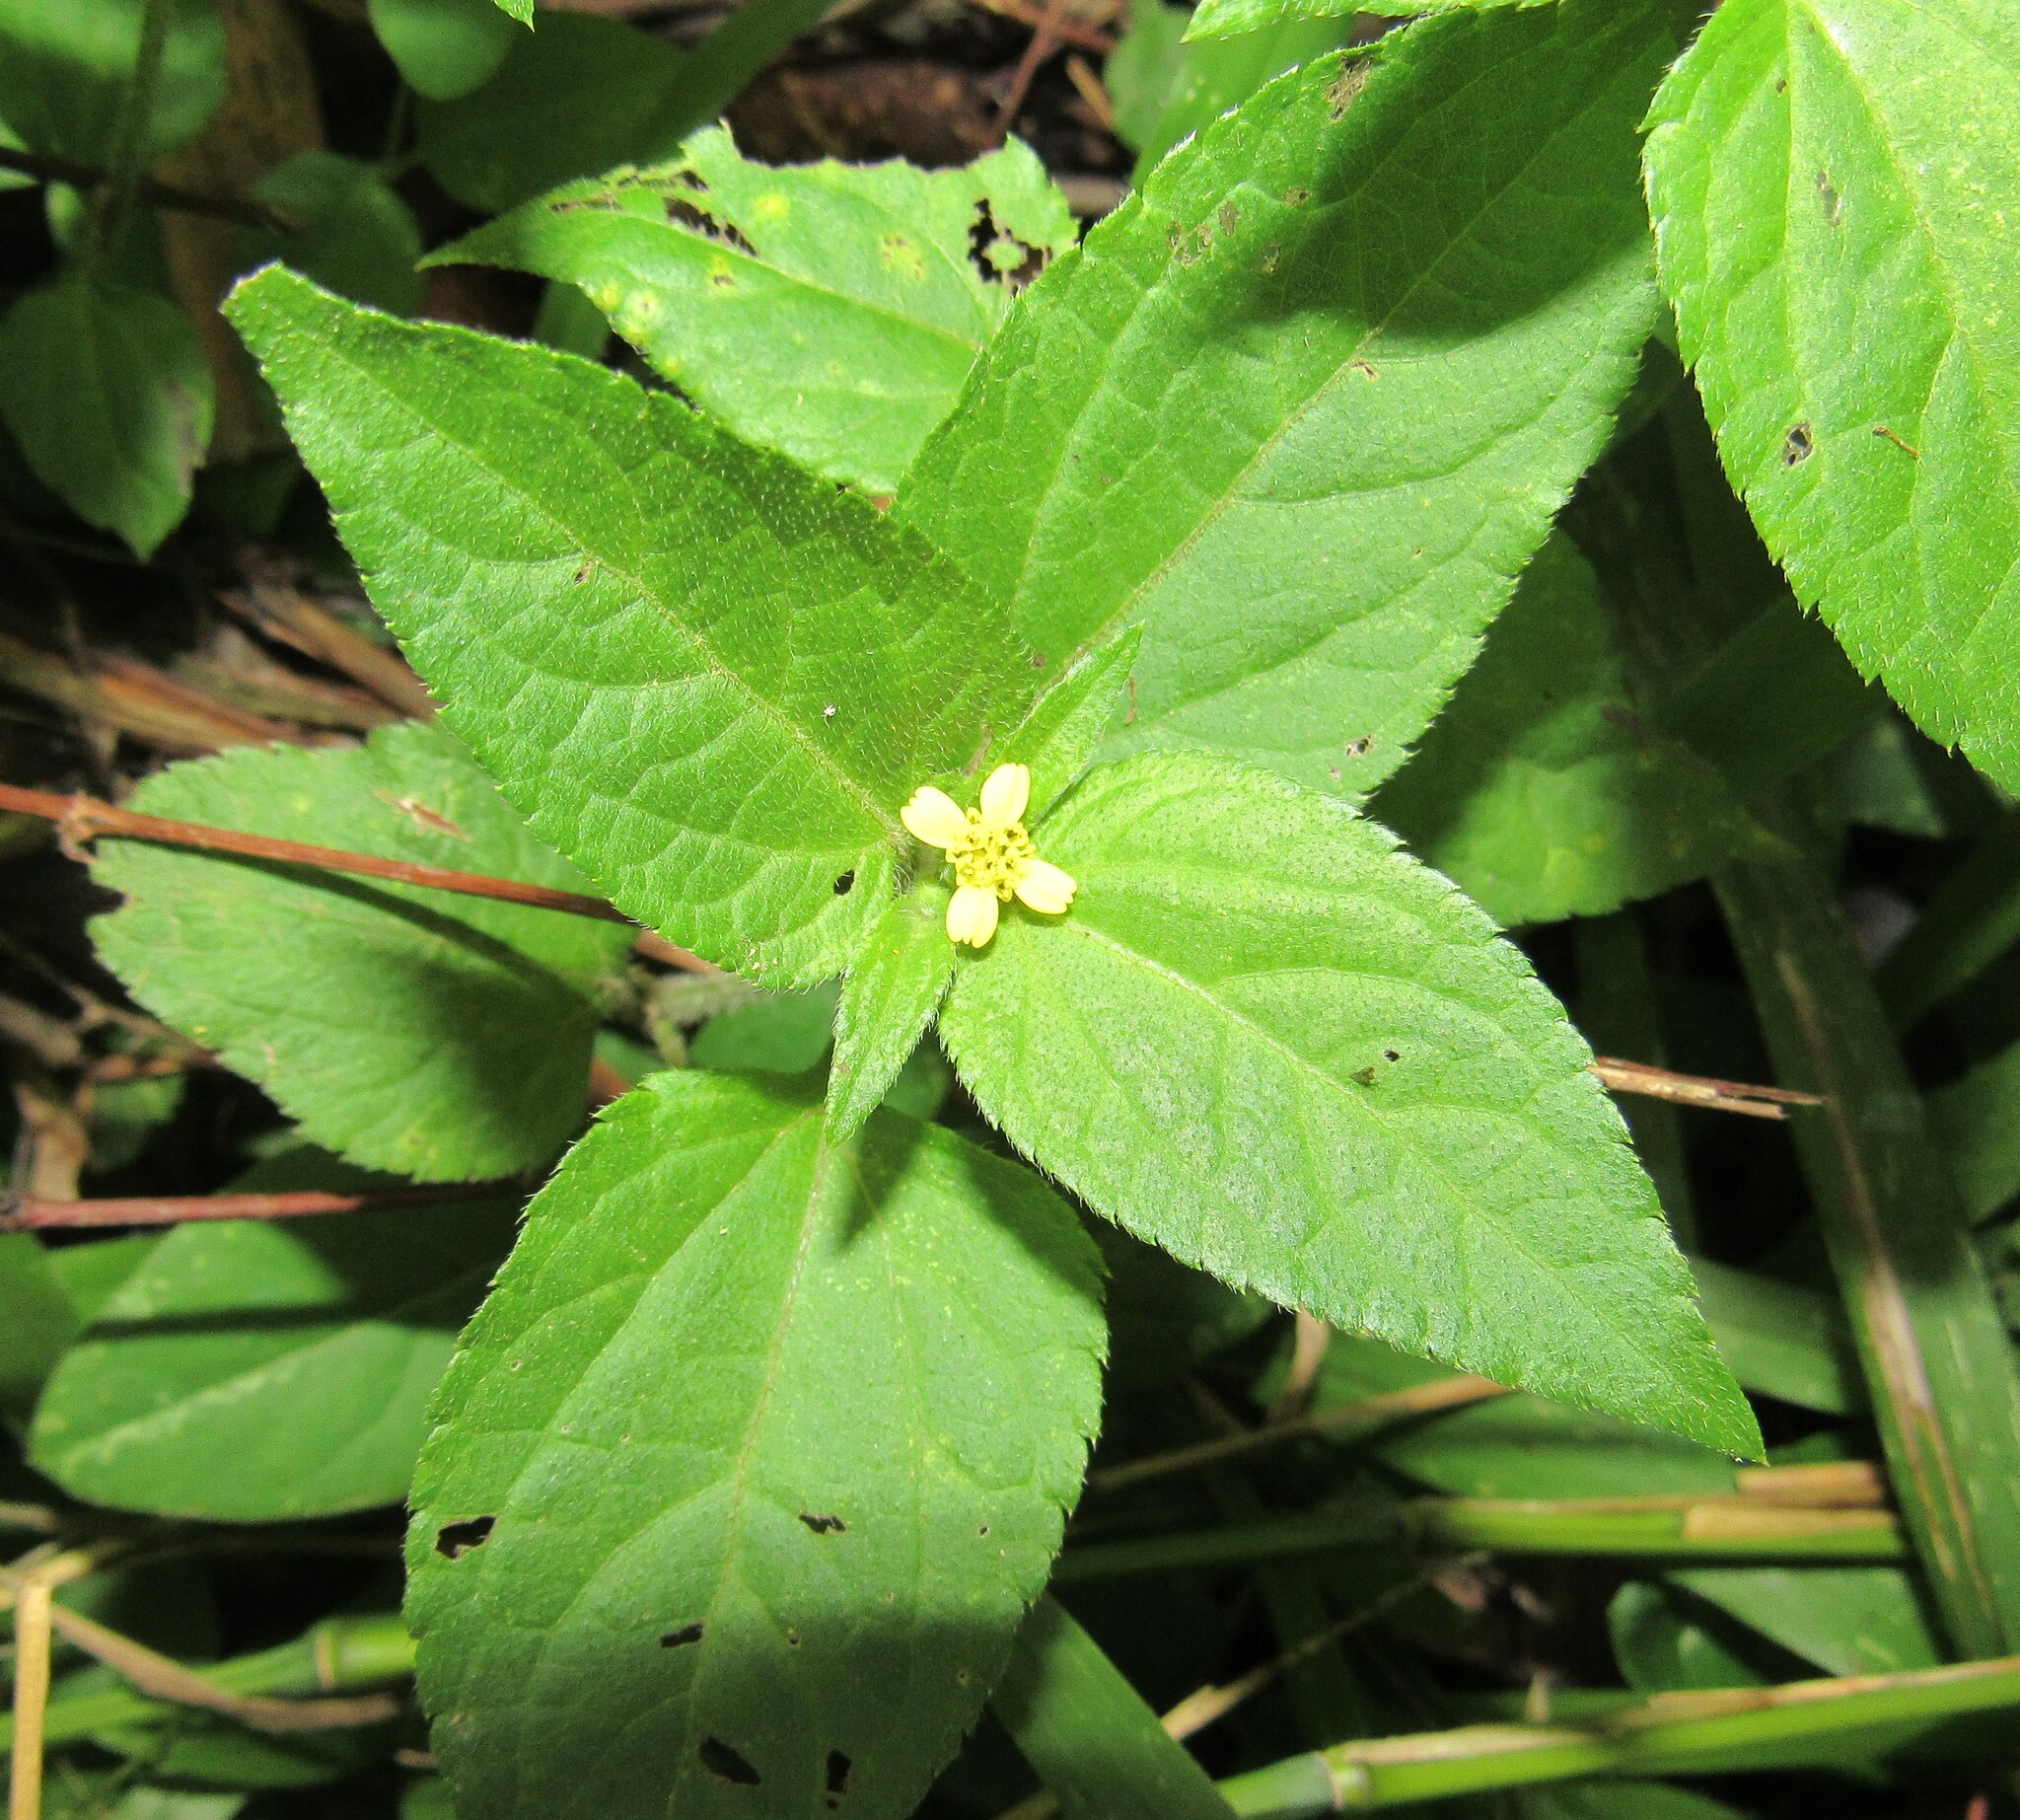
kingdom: Plantae
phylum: Tracheophyta
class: Magnoliopsida
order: Asterales
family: Asteraceae
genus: Calyptocarpus
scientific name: Calyptocarpus brasiliensis
